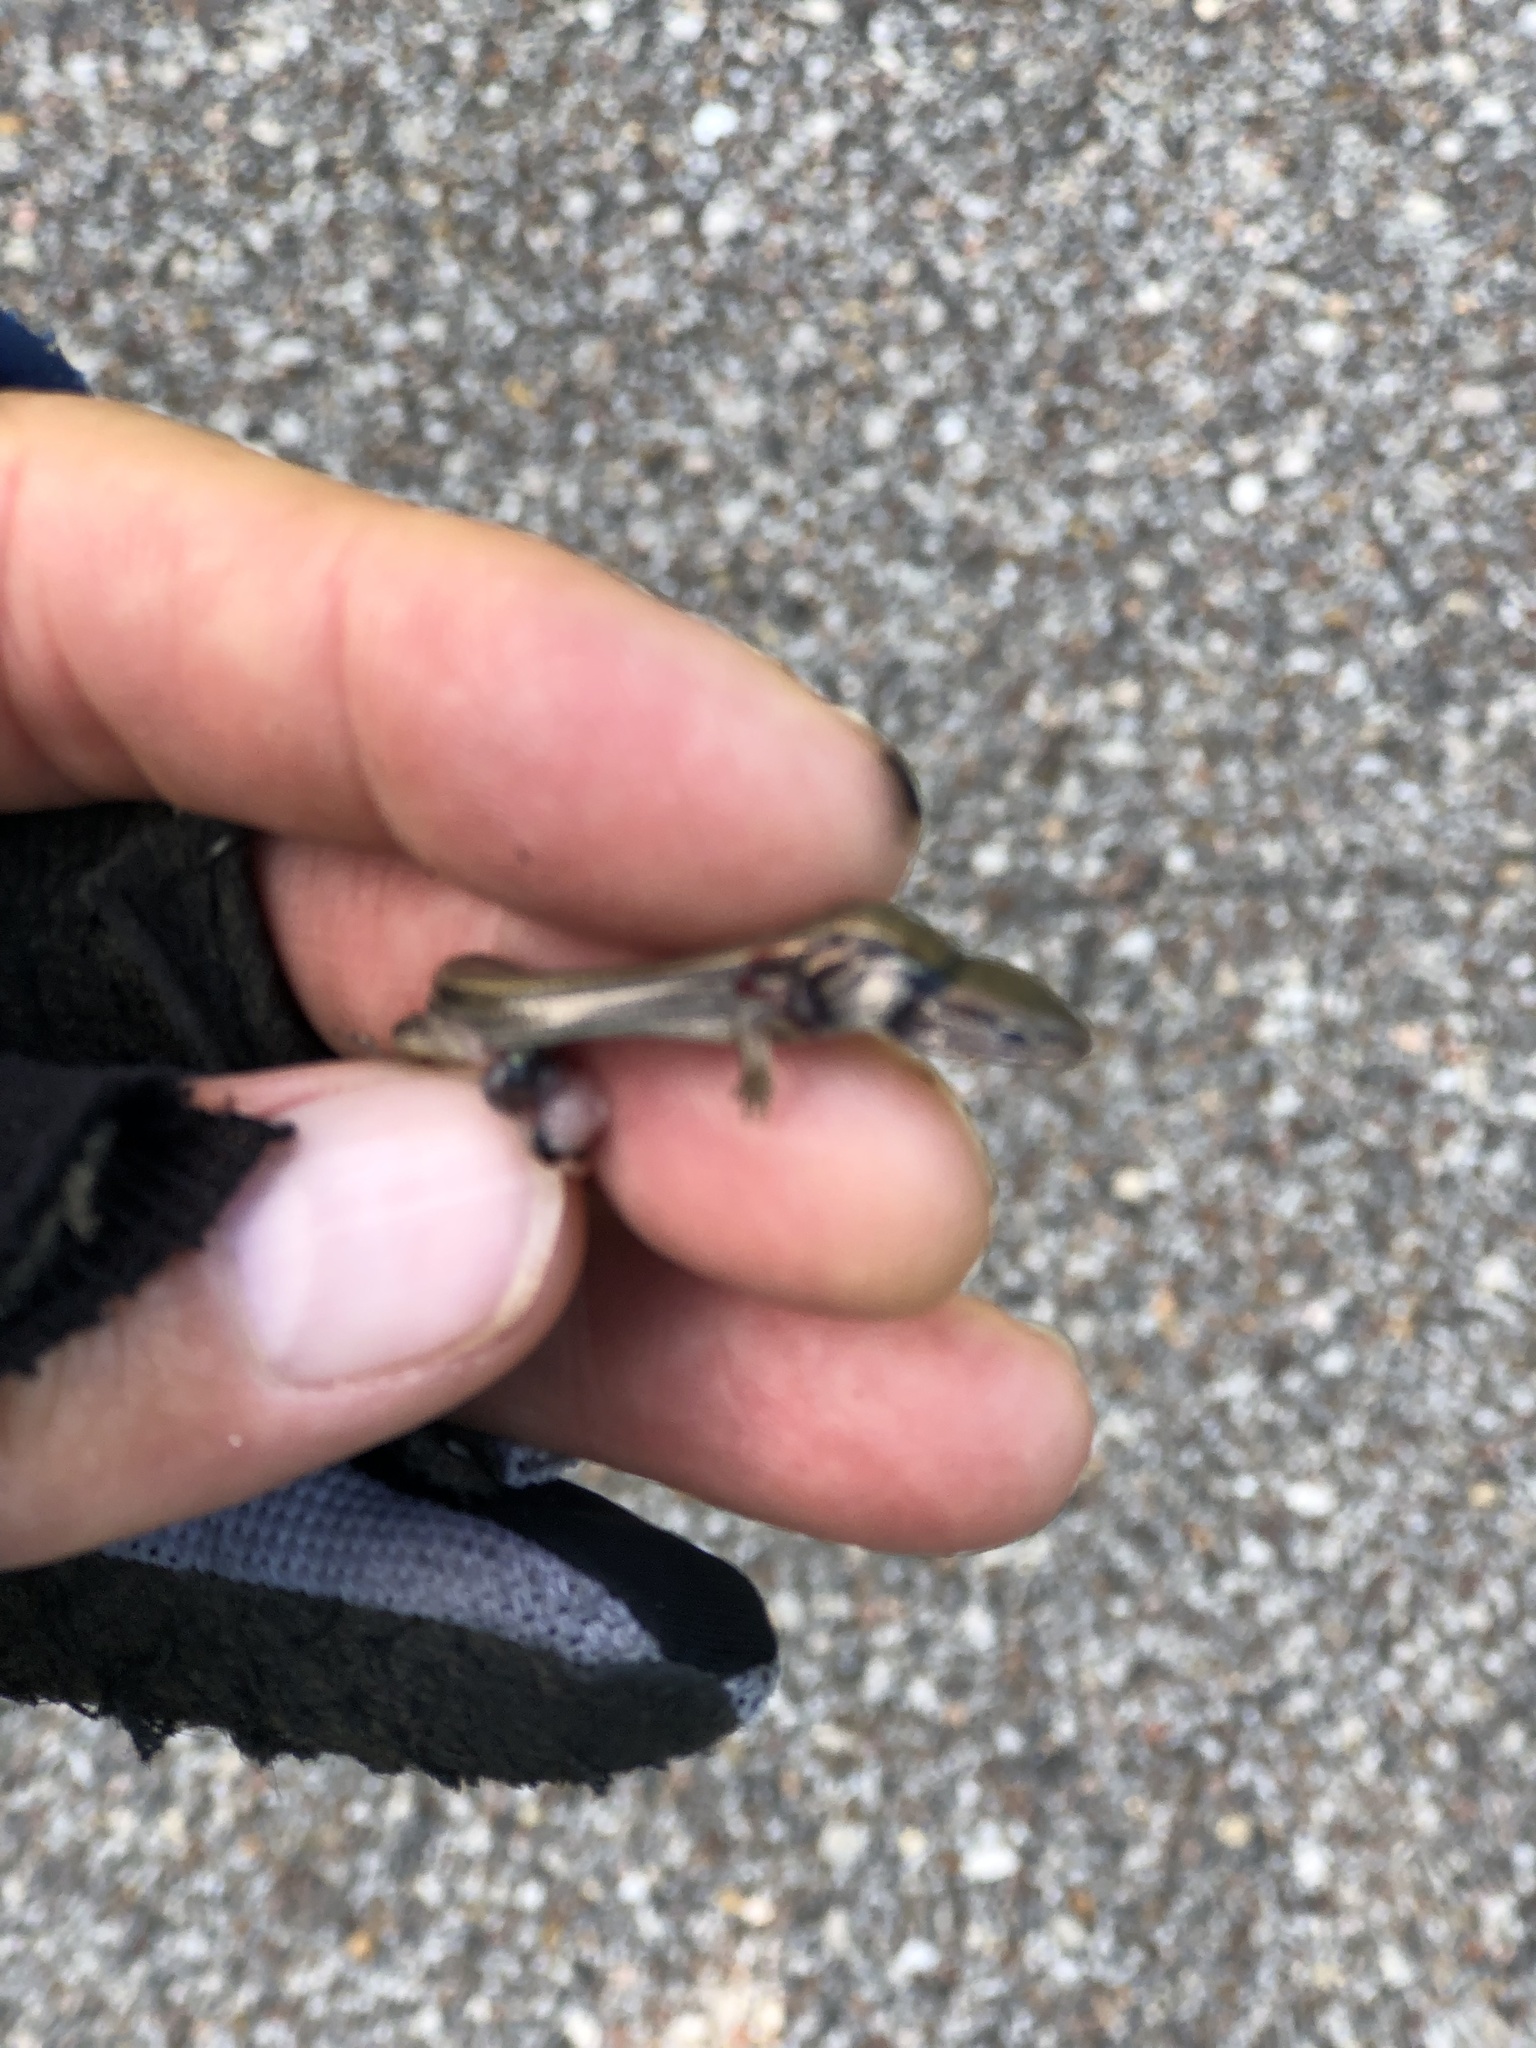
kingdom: Animalia
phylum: Chordata
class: Squamata
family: Scincidae
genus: Scincella
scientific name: Scincella lateralis
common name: Ground skink
